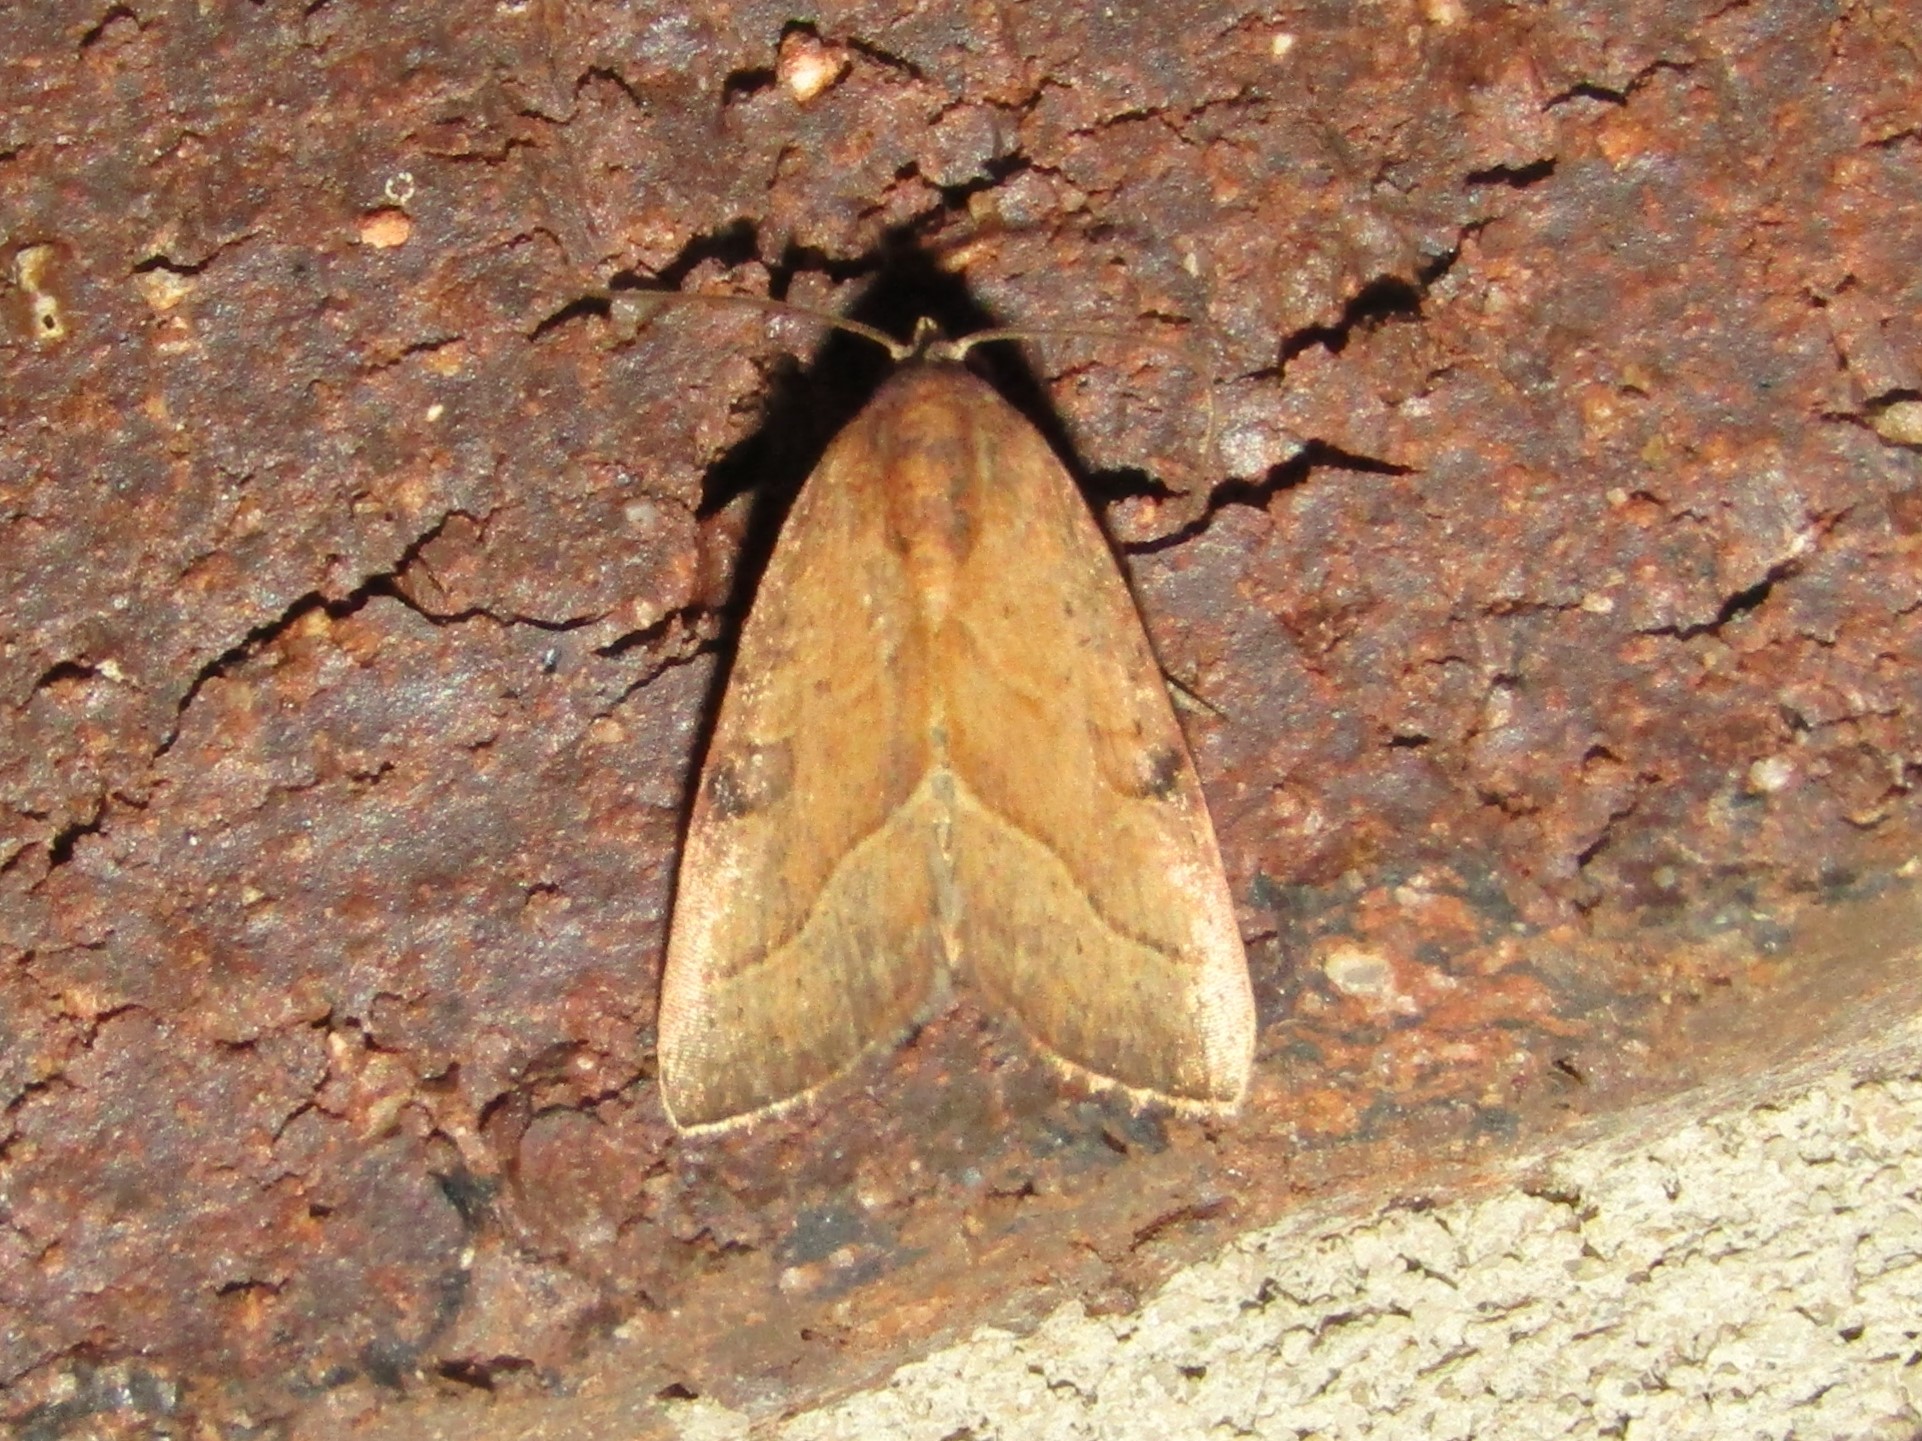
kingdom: Animalia
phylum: Arthropoda
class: Insecta
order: Lepidoptera
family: Noctuidae
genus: Galgula
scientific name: Galgula partita
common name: Wedgeling
